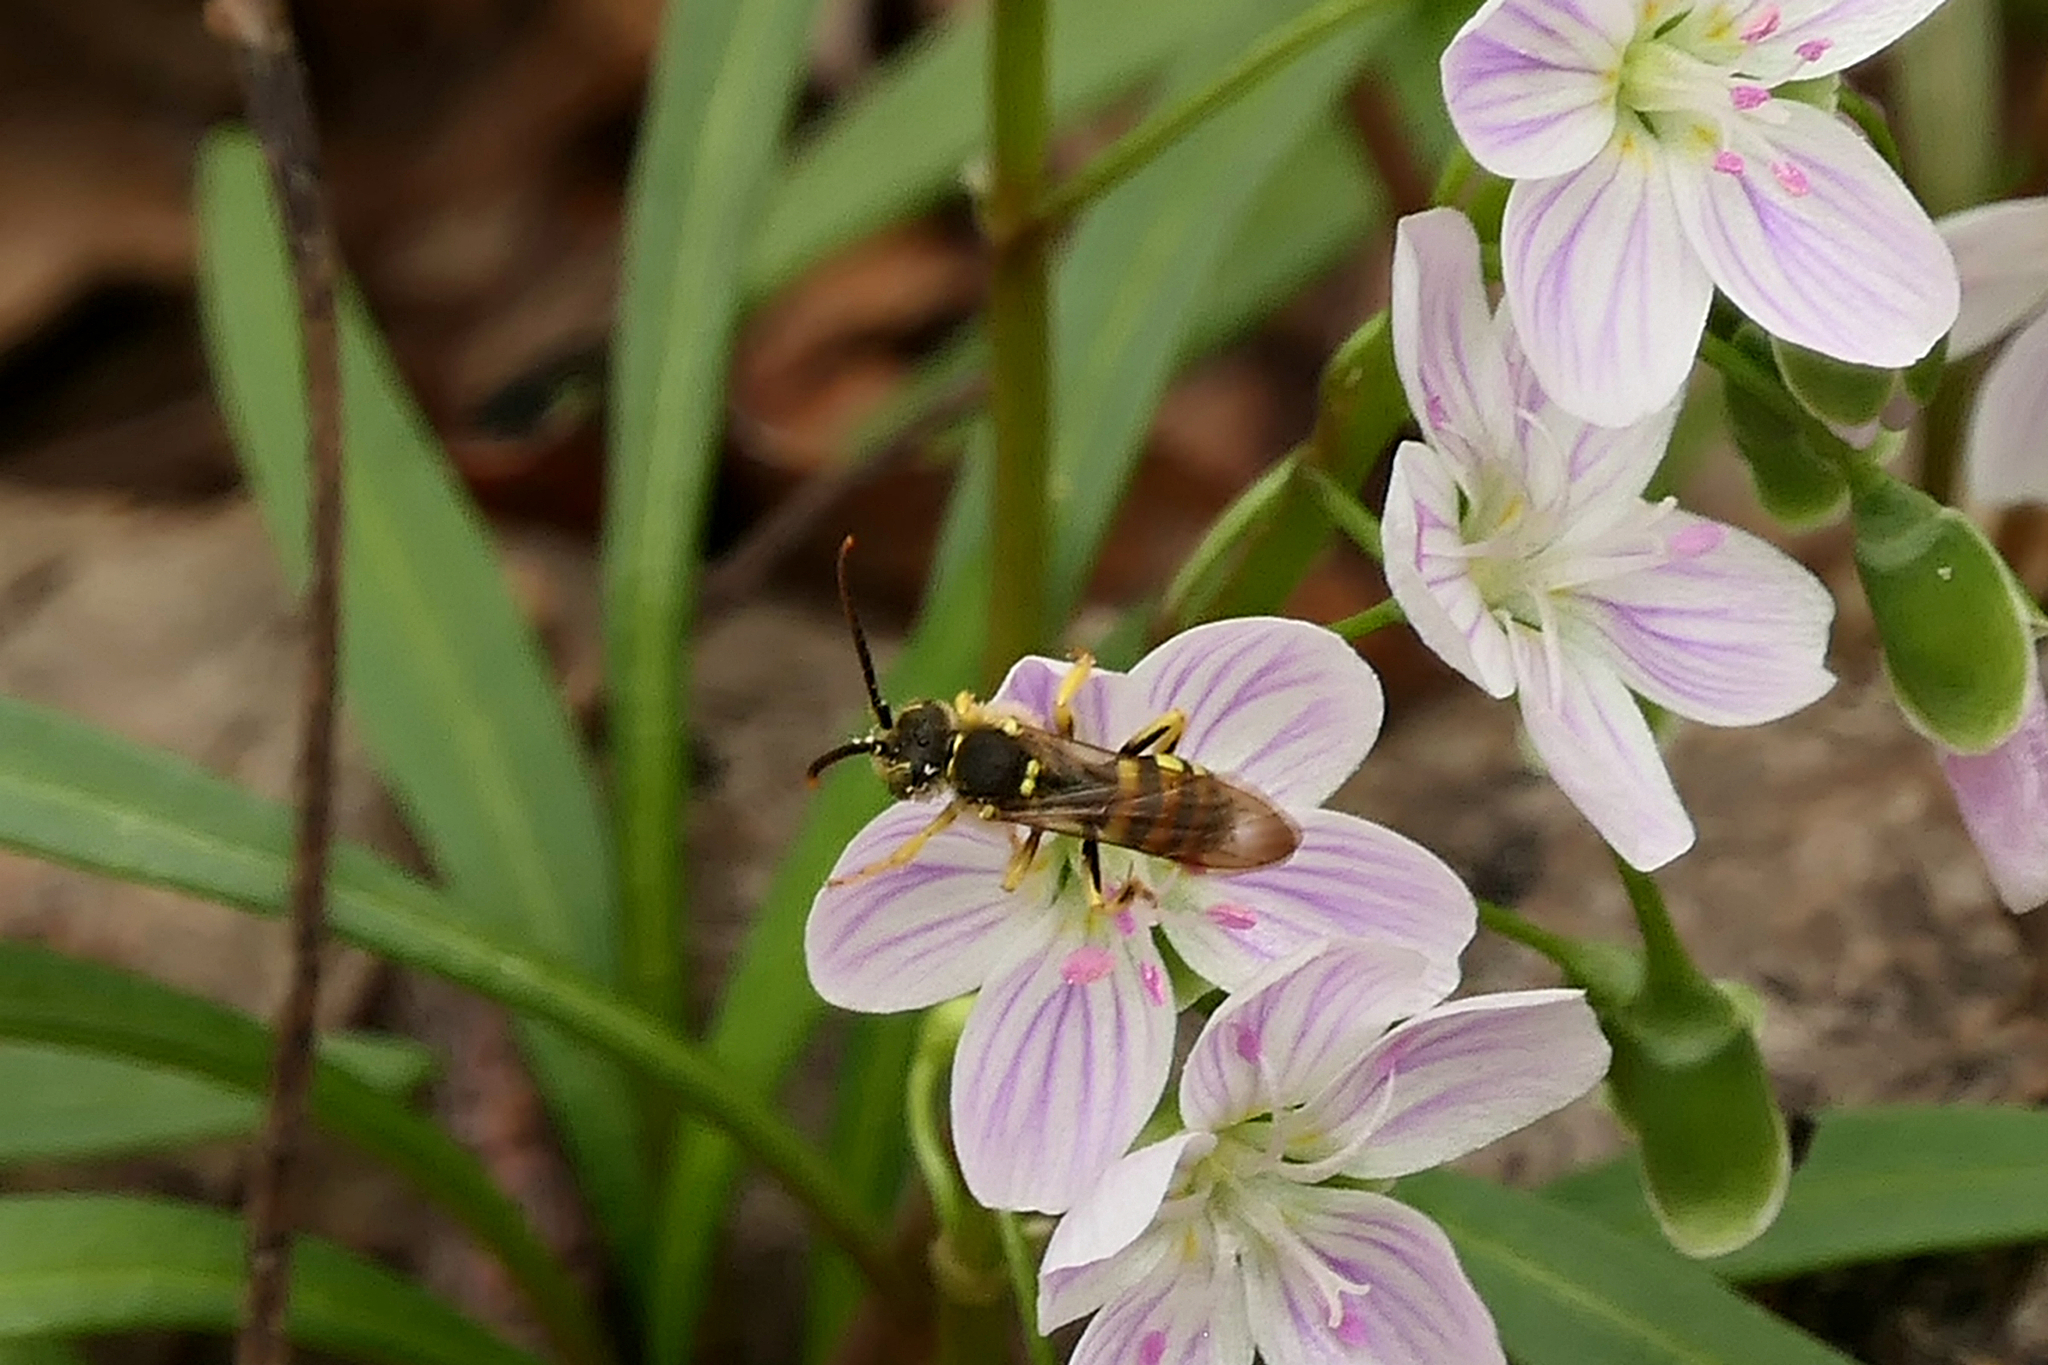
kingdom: Animalia
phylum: Arthropoda
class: Insecta
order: Hymenoptera
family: Apidae
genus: Nomada
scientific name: Nomada luteoloides
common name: Black-and-yellow nomad bee
